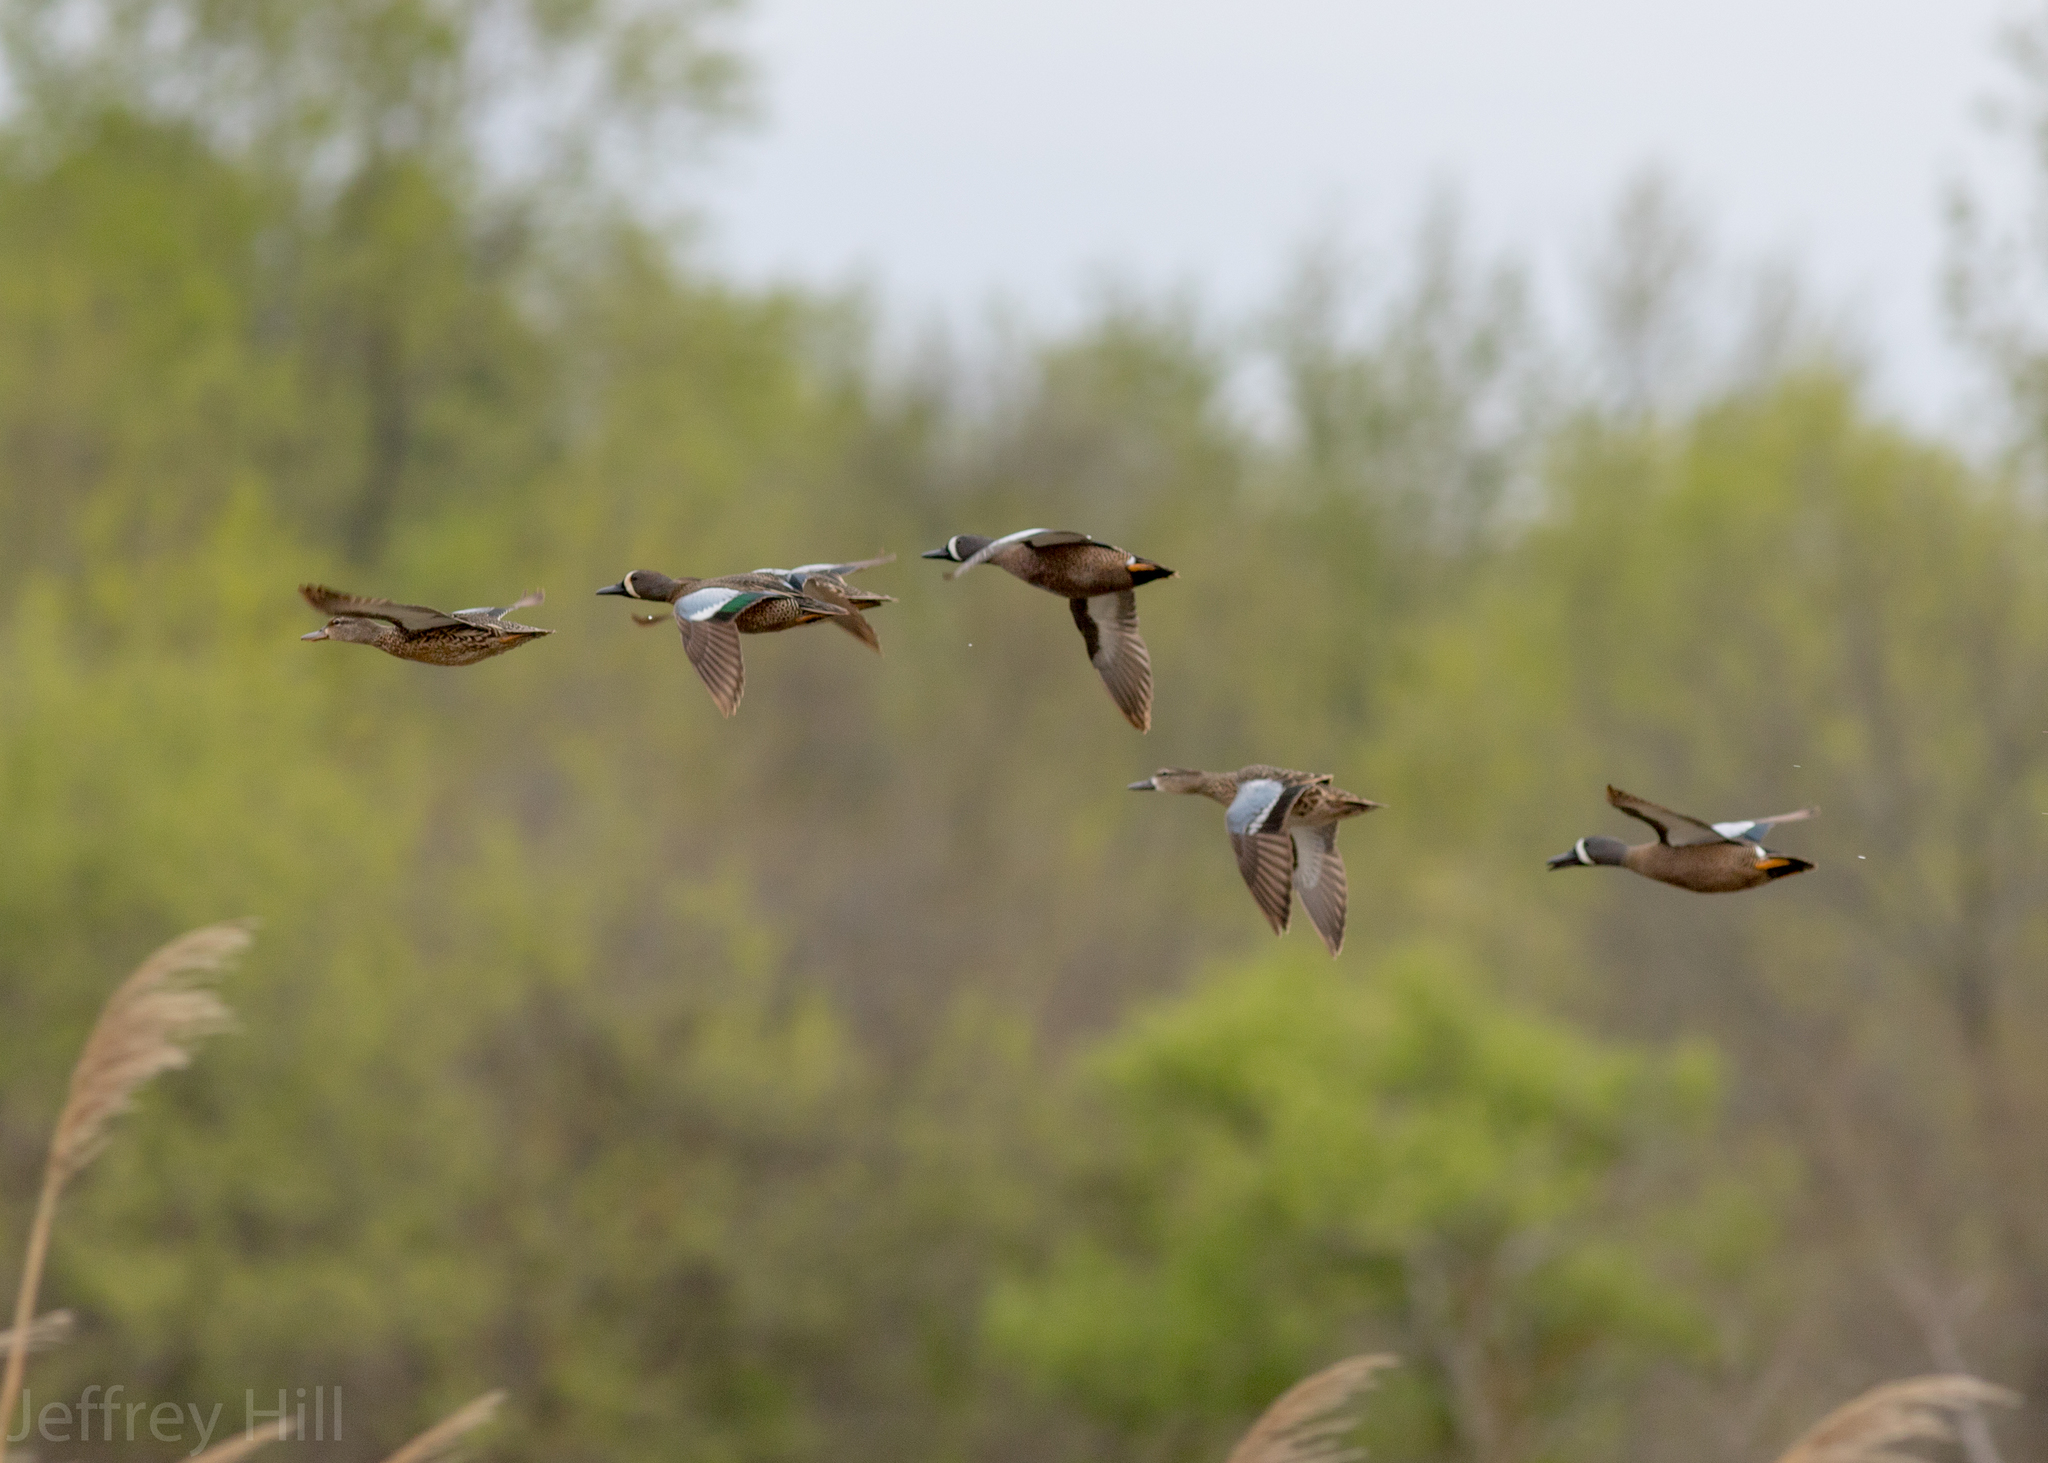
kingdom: Animalia
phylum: Chordata
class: Aves
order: Anseriformes
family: Anatidae
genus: Spatula
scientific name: Spatula discors
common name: Blue-winged teal
